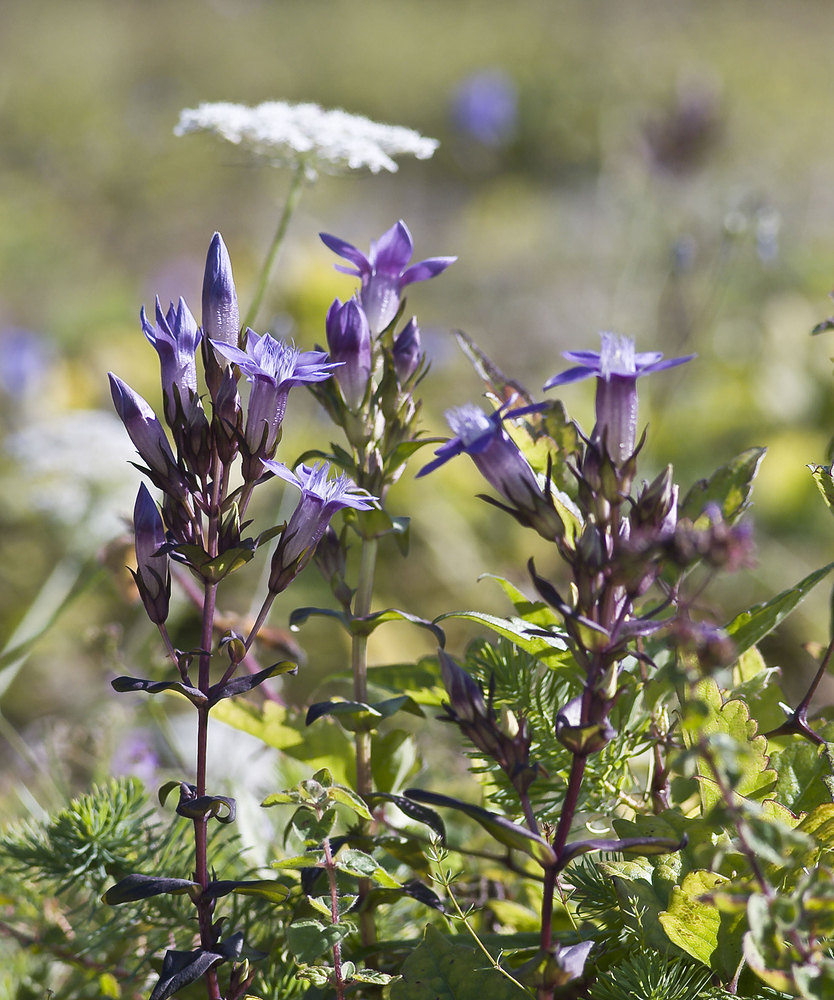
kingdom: Plantae
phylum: Tracheophyta
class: Magnoliopsida
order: Gentianales
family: Gentianaceae
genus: Gentianella
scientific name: Gentianella germanica
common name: Chiltern-gentian
